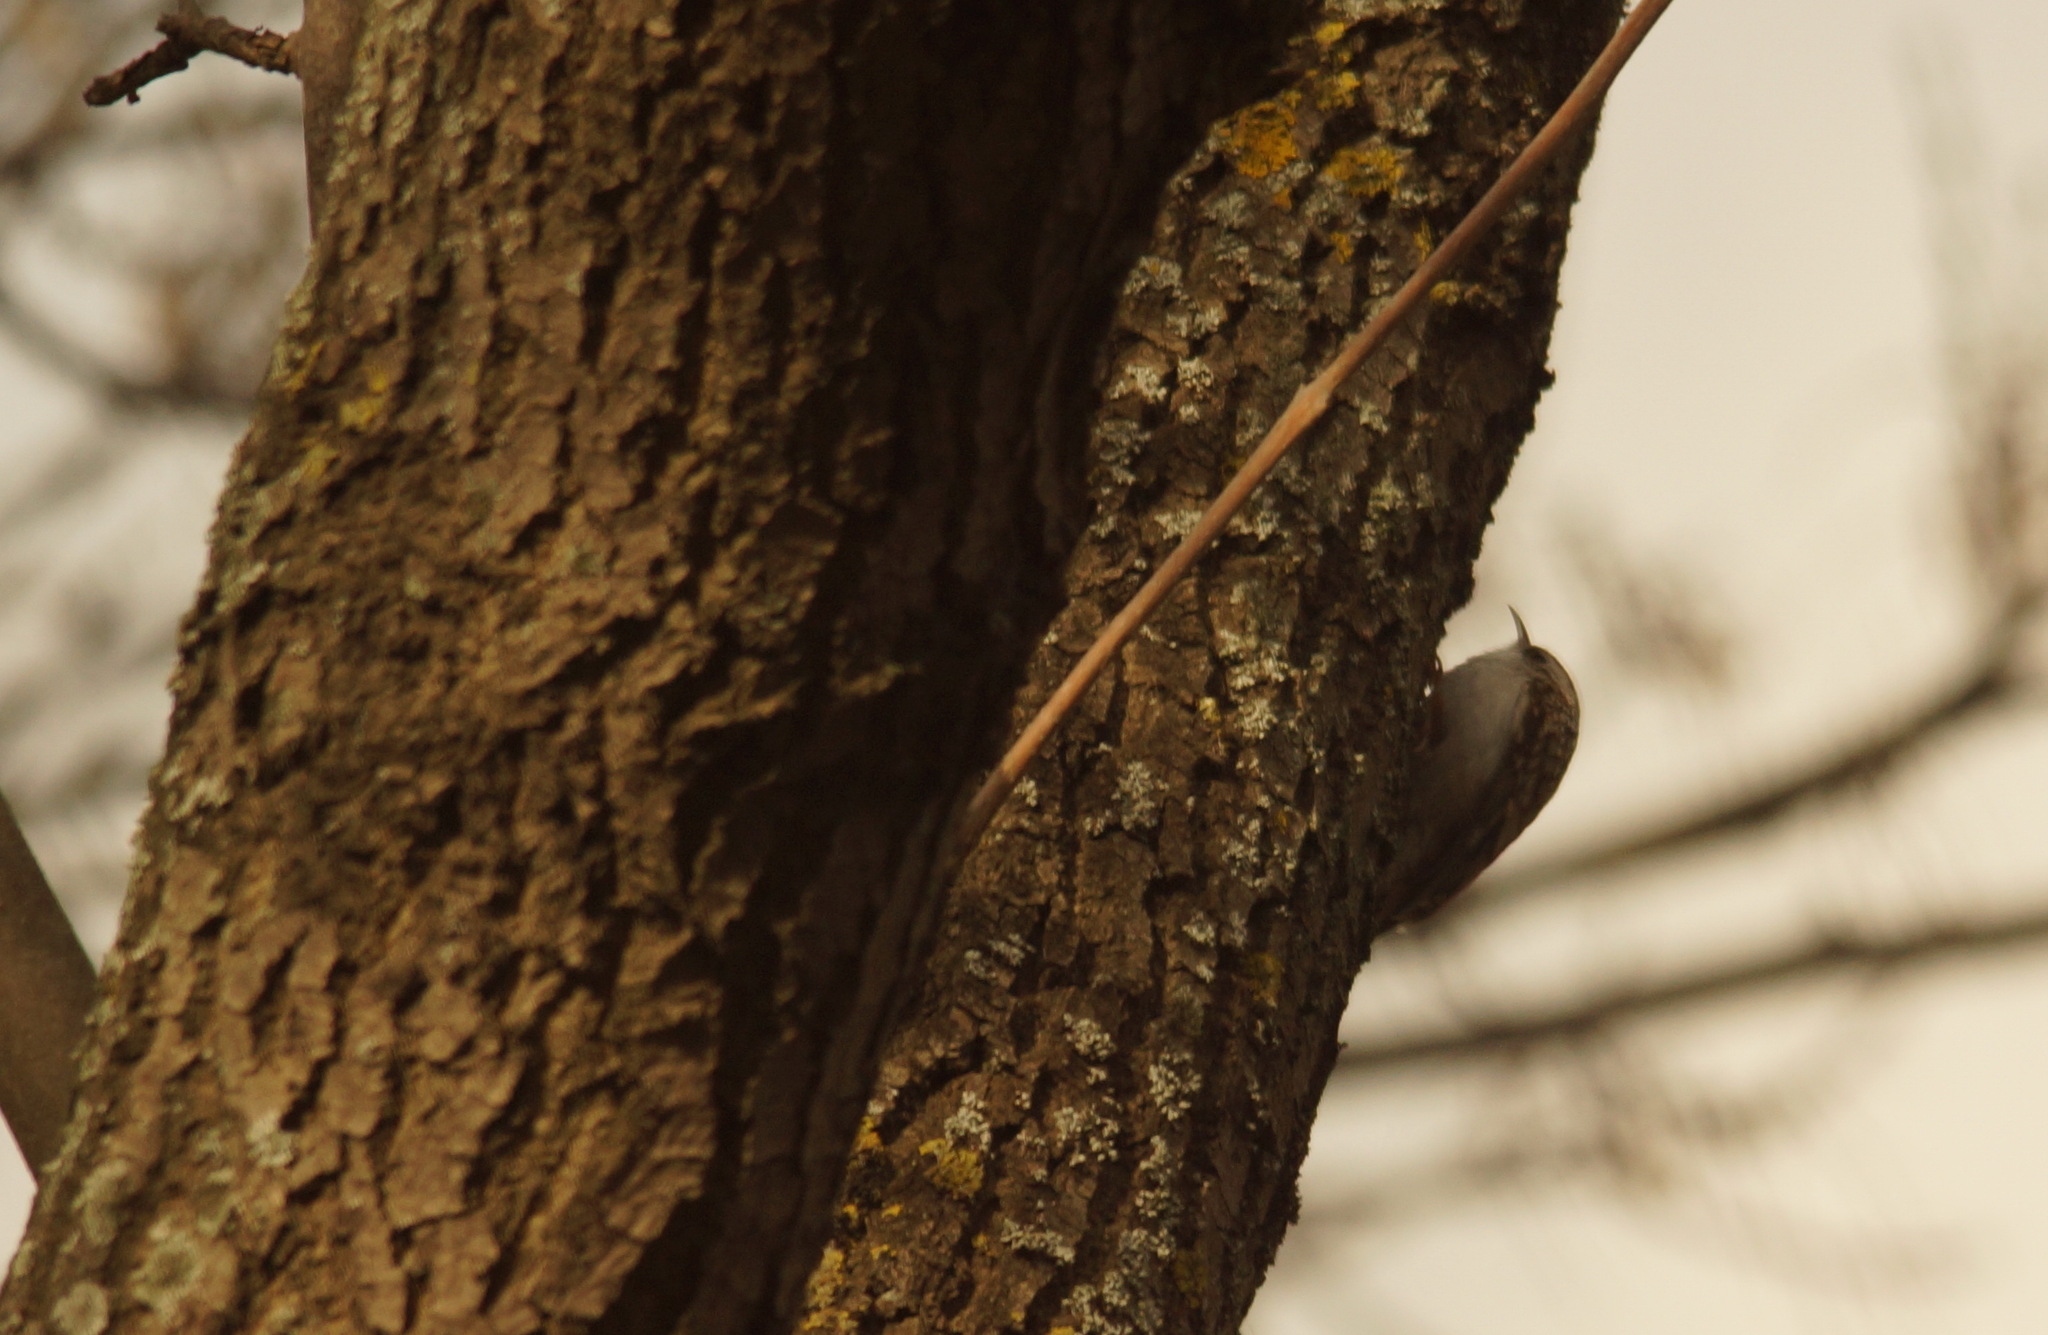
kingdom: Animalia
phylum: Chordata
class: Aves
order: Passeriformes
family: Certhiidae
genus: Certhia
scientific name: Certhia familiaris
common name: Eurasian treecreeper
